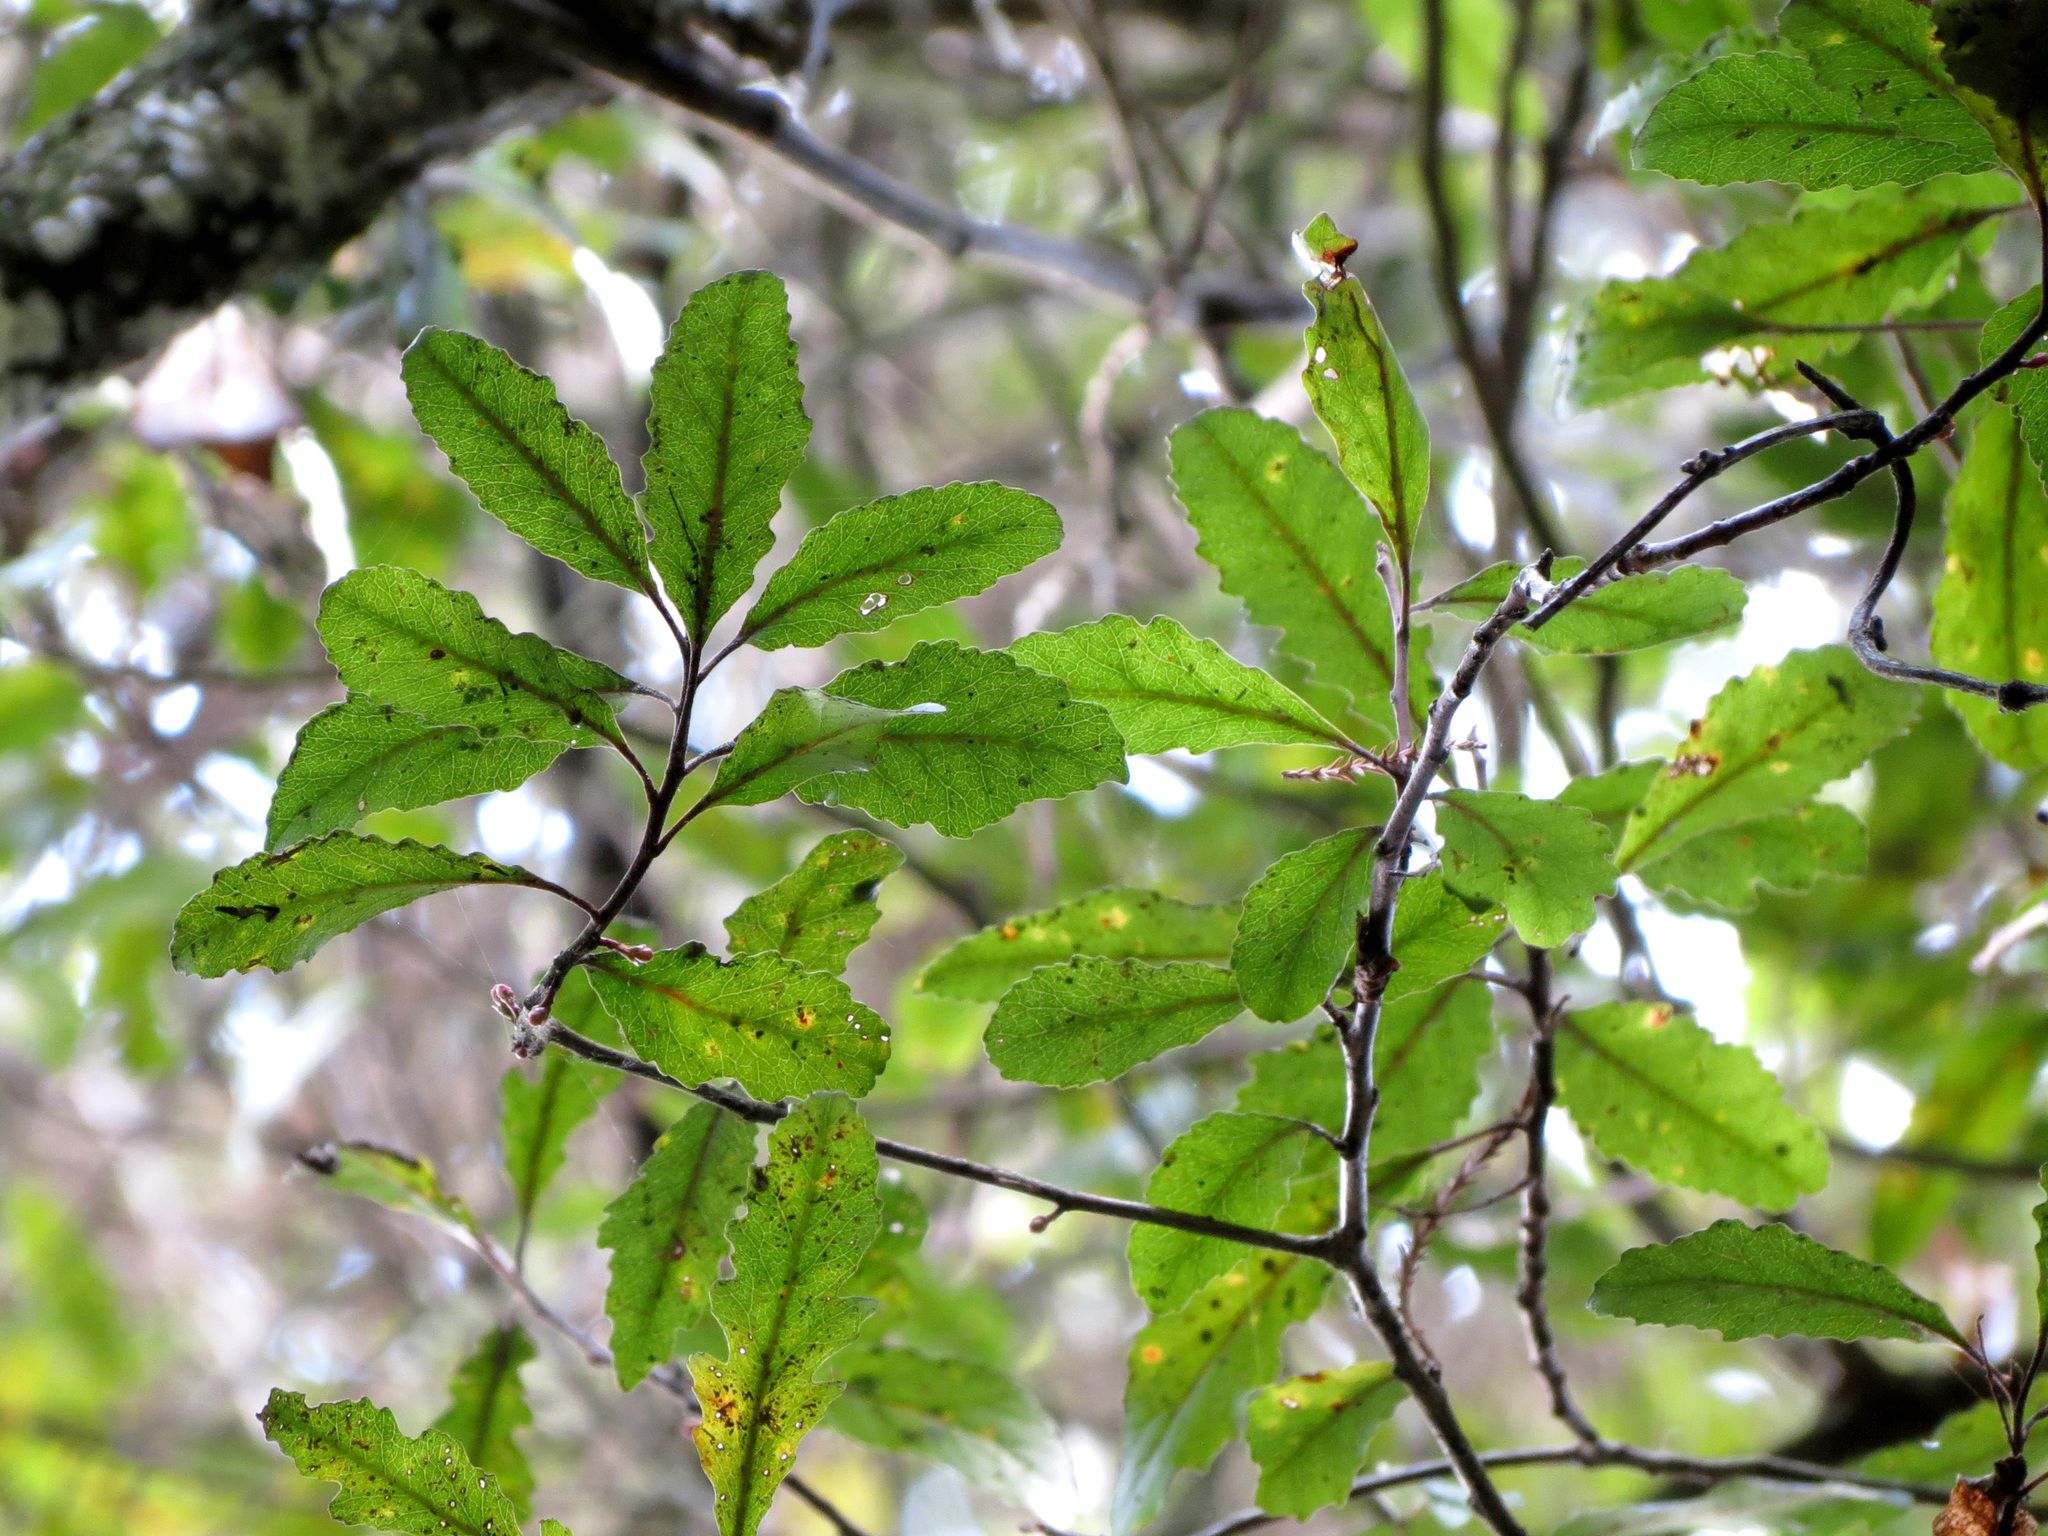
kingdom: Plantae
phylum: Tracheophyta
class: Magnoliopsida
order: Oxalidales
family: Elaeocarpaceae
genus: Elaeocarpus
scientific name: Elaeocarpus hookerianus
